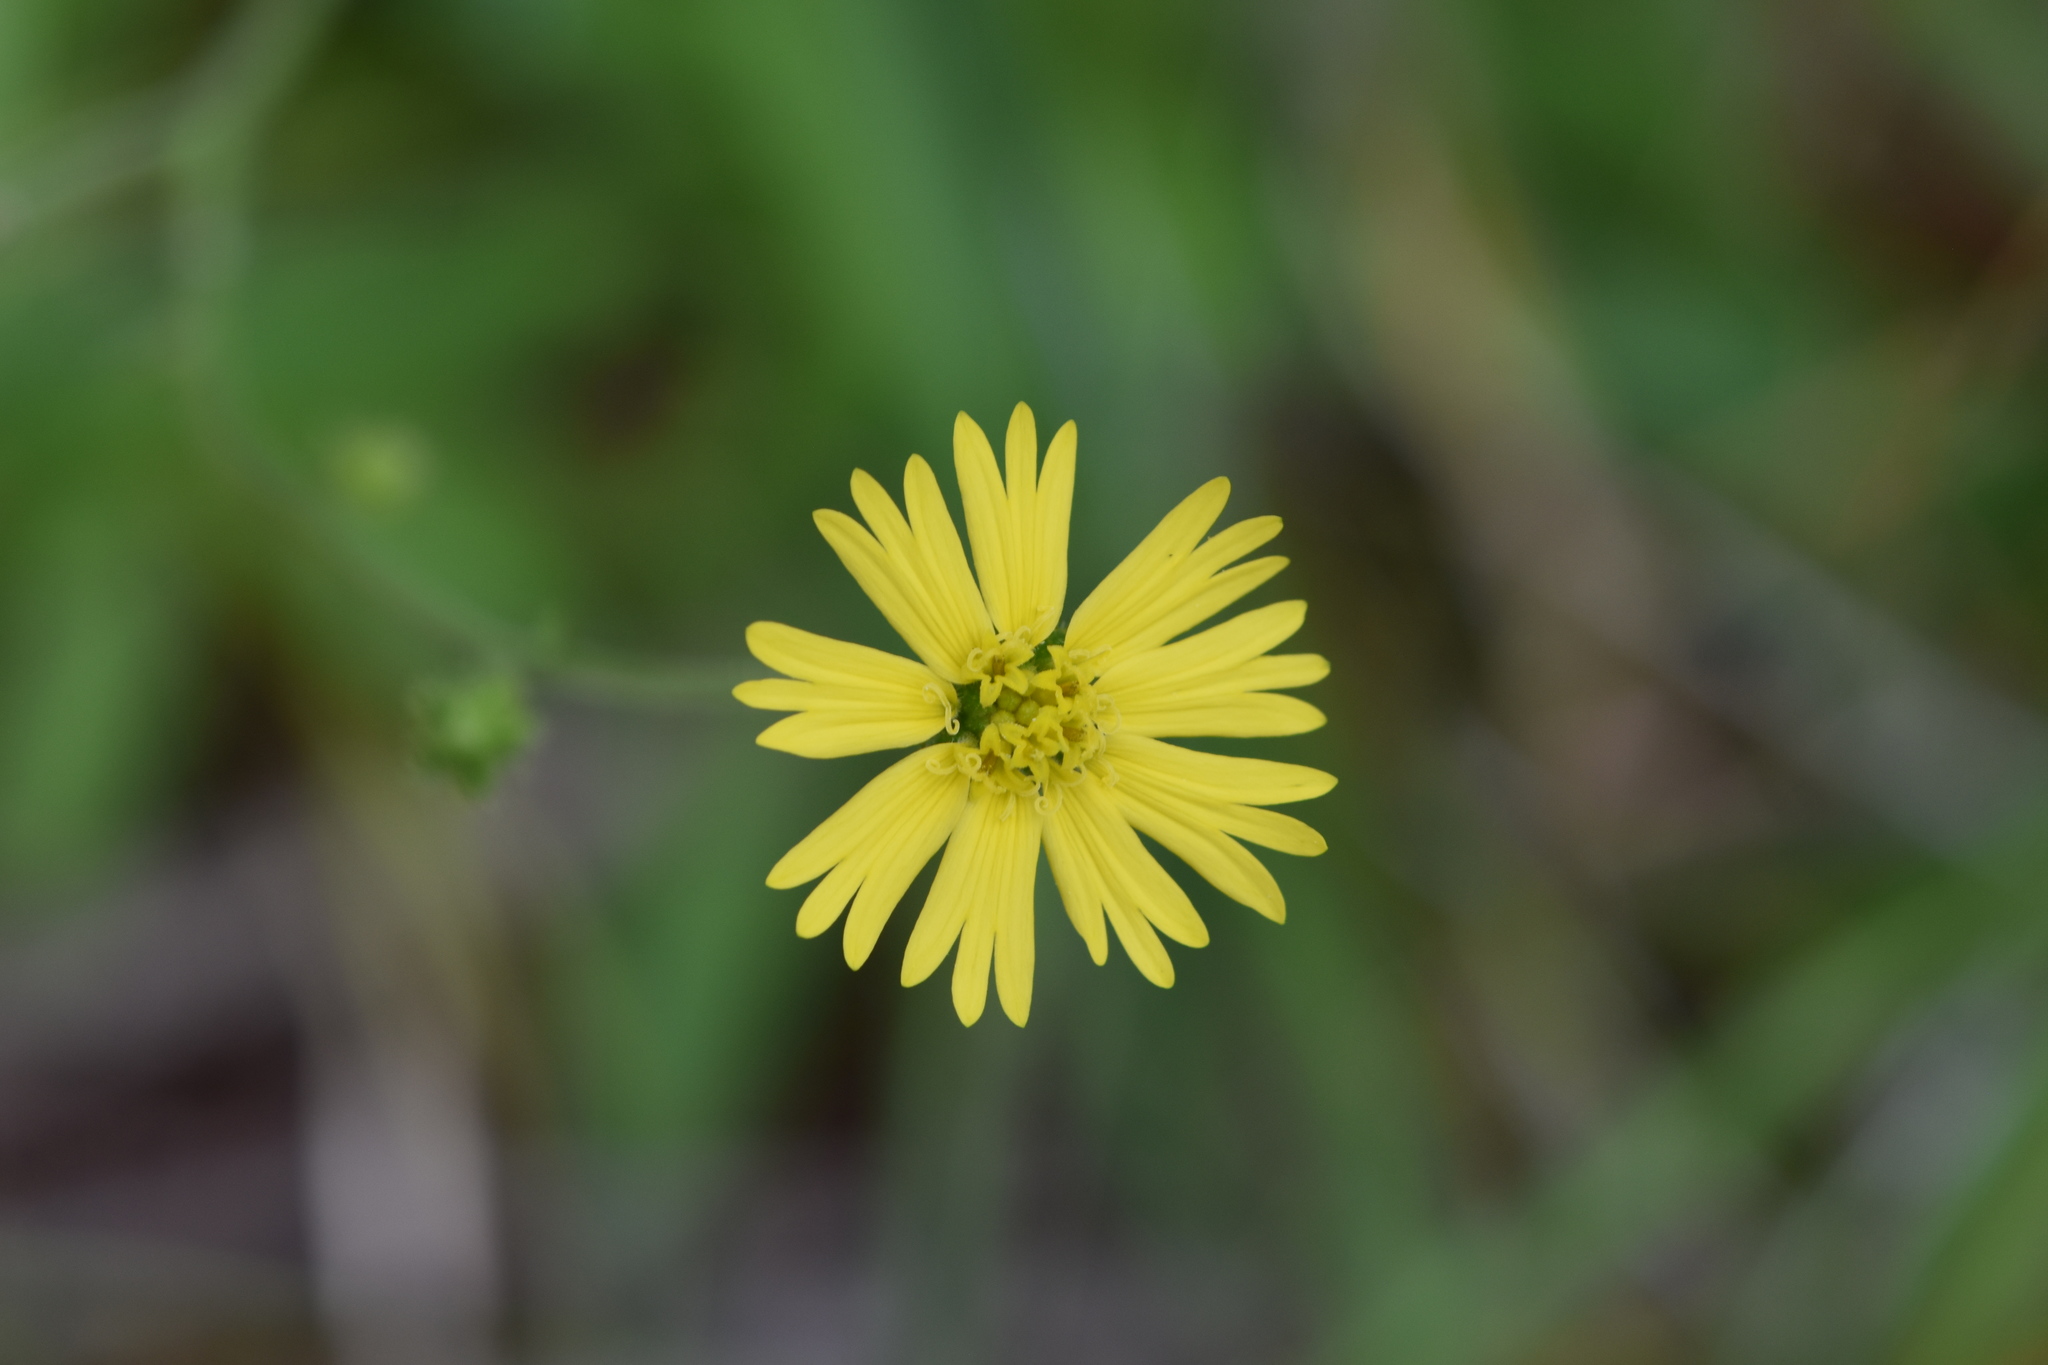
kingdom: Plantae
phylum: Tracheophyta
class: Magnoliopsida
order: Asterales
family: Asteraceae
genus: Anisocarpus
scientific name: Anisocarpus madioides
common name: Woodland madia
